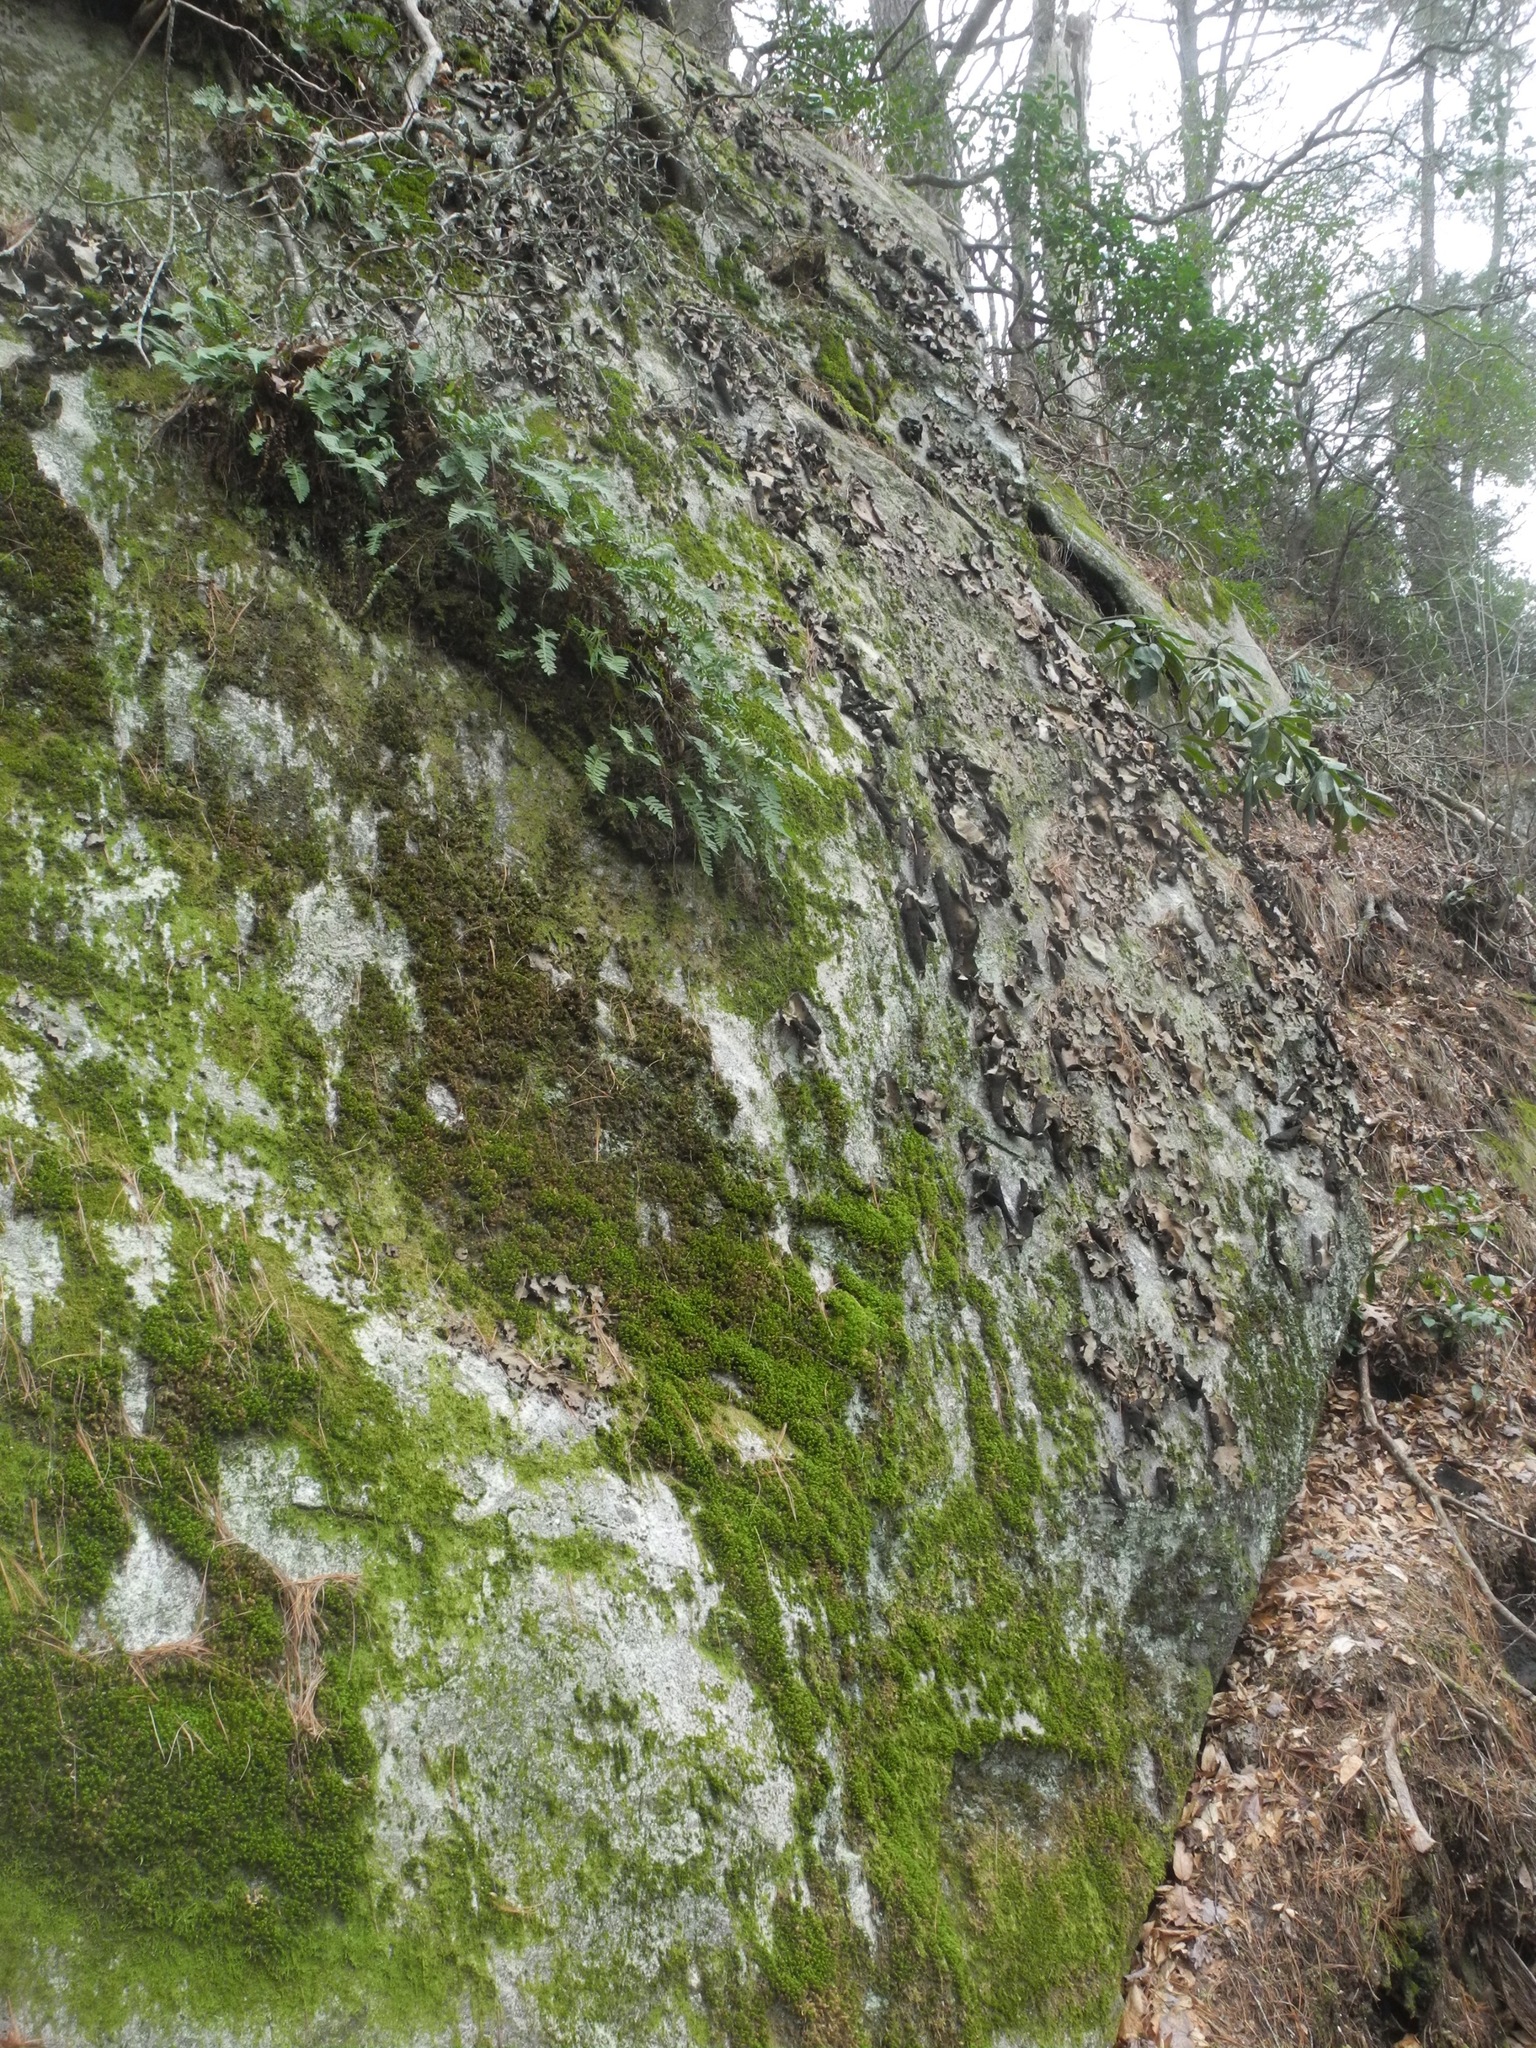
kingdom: Fungi
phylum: Ascomycota
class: Lecanoromycetes
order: Umbilicariales
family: Umbilicariaceae
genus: Umbilicaria
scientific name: Umbilicaria mammulata
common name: Smooth rock tripe
